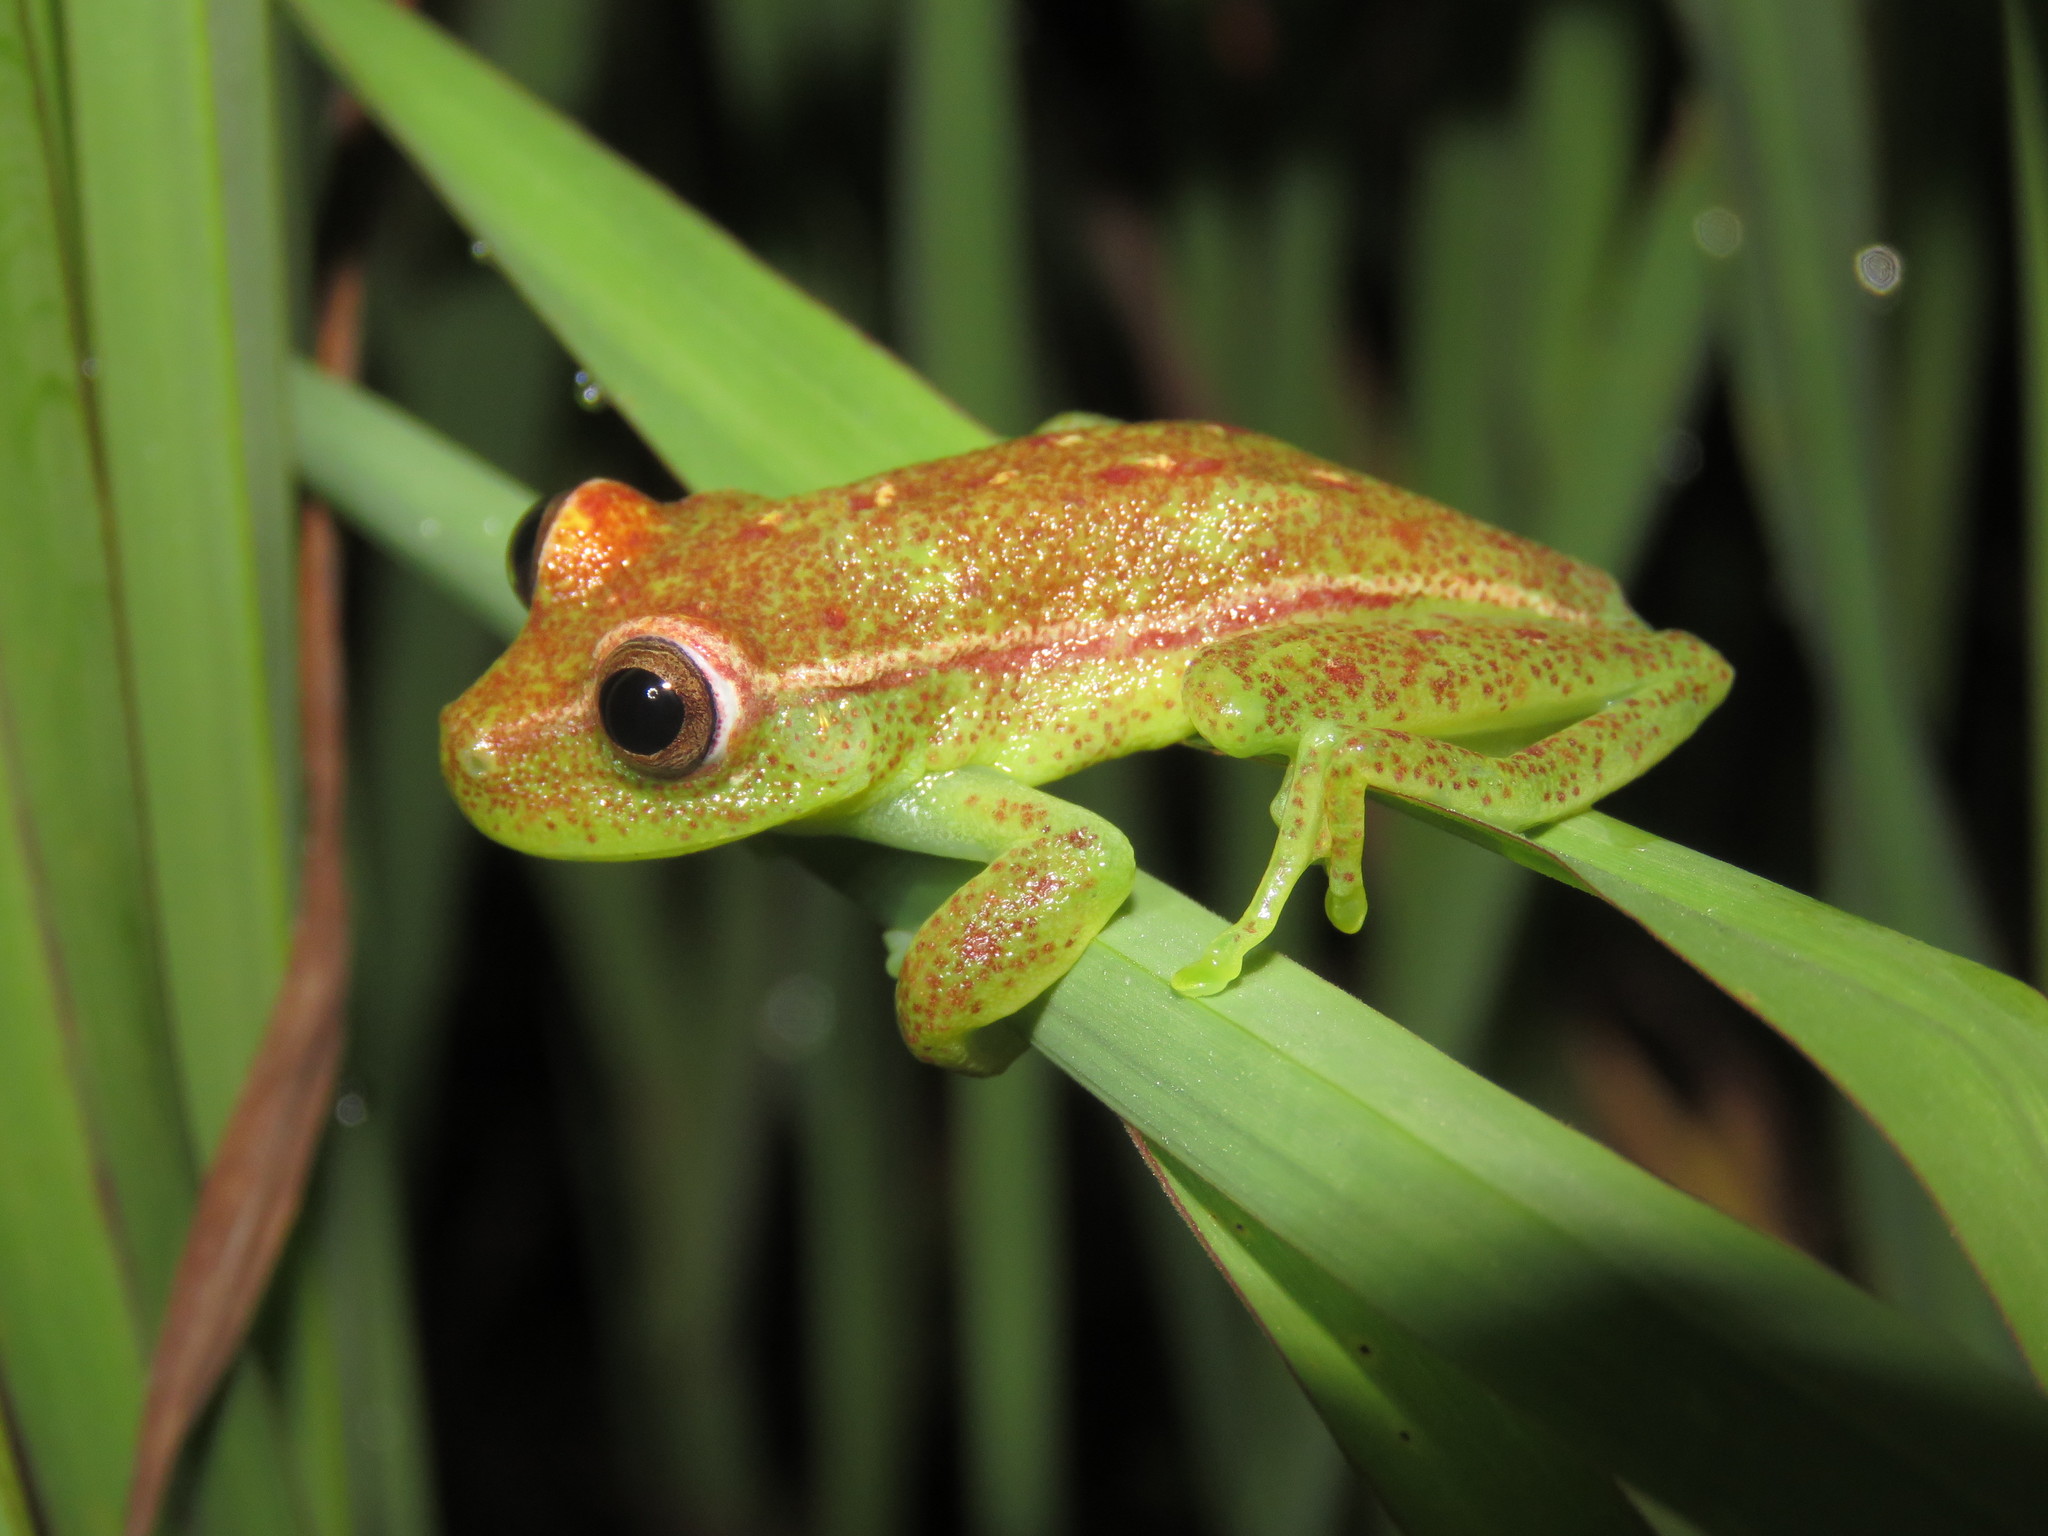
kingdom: Animalia
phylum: Chordata
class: Amphibia
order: Anura
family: Hylidae
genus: Boana
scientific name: Boana punctata
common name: Polka-dot treefrog
